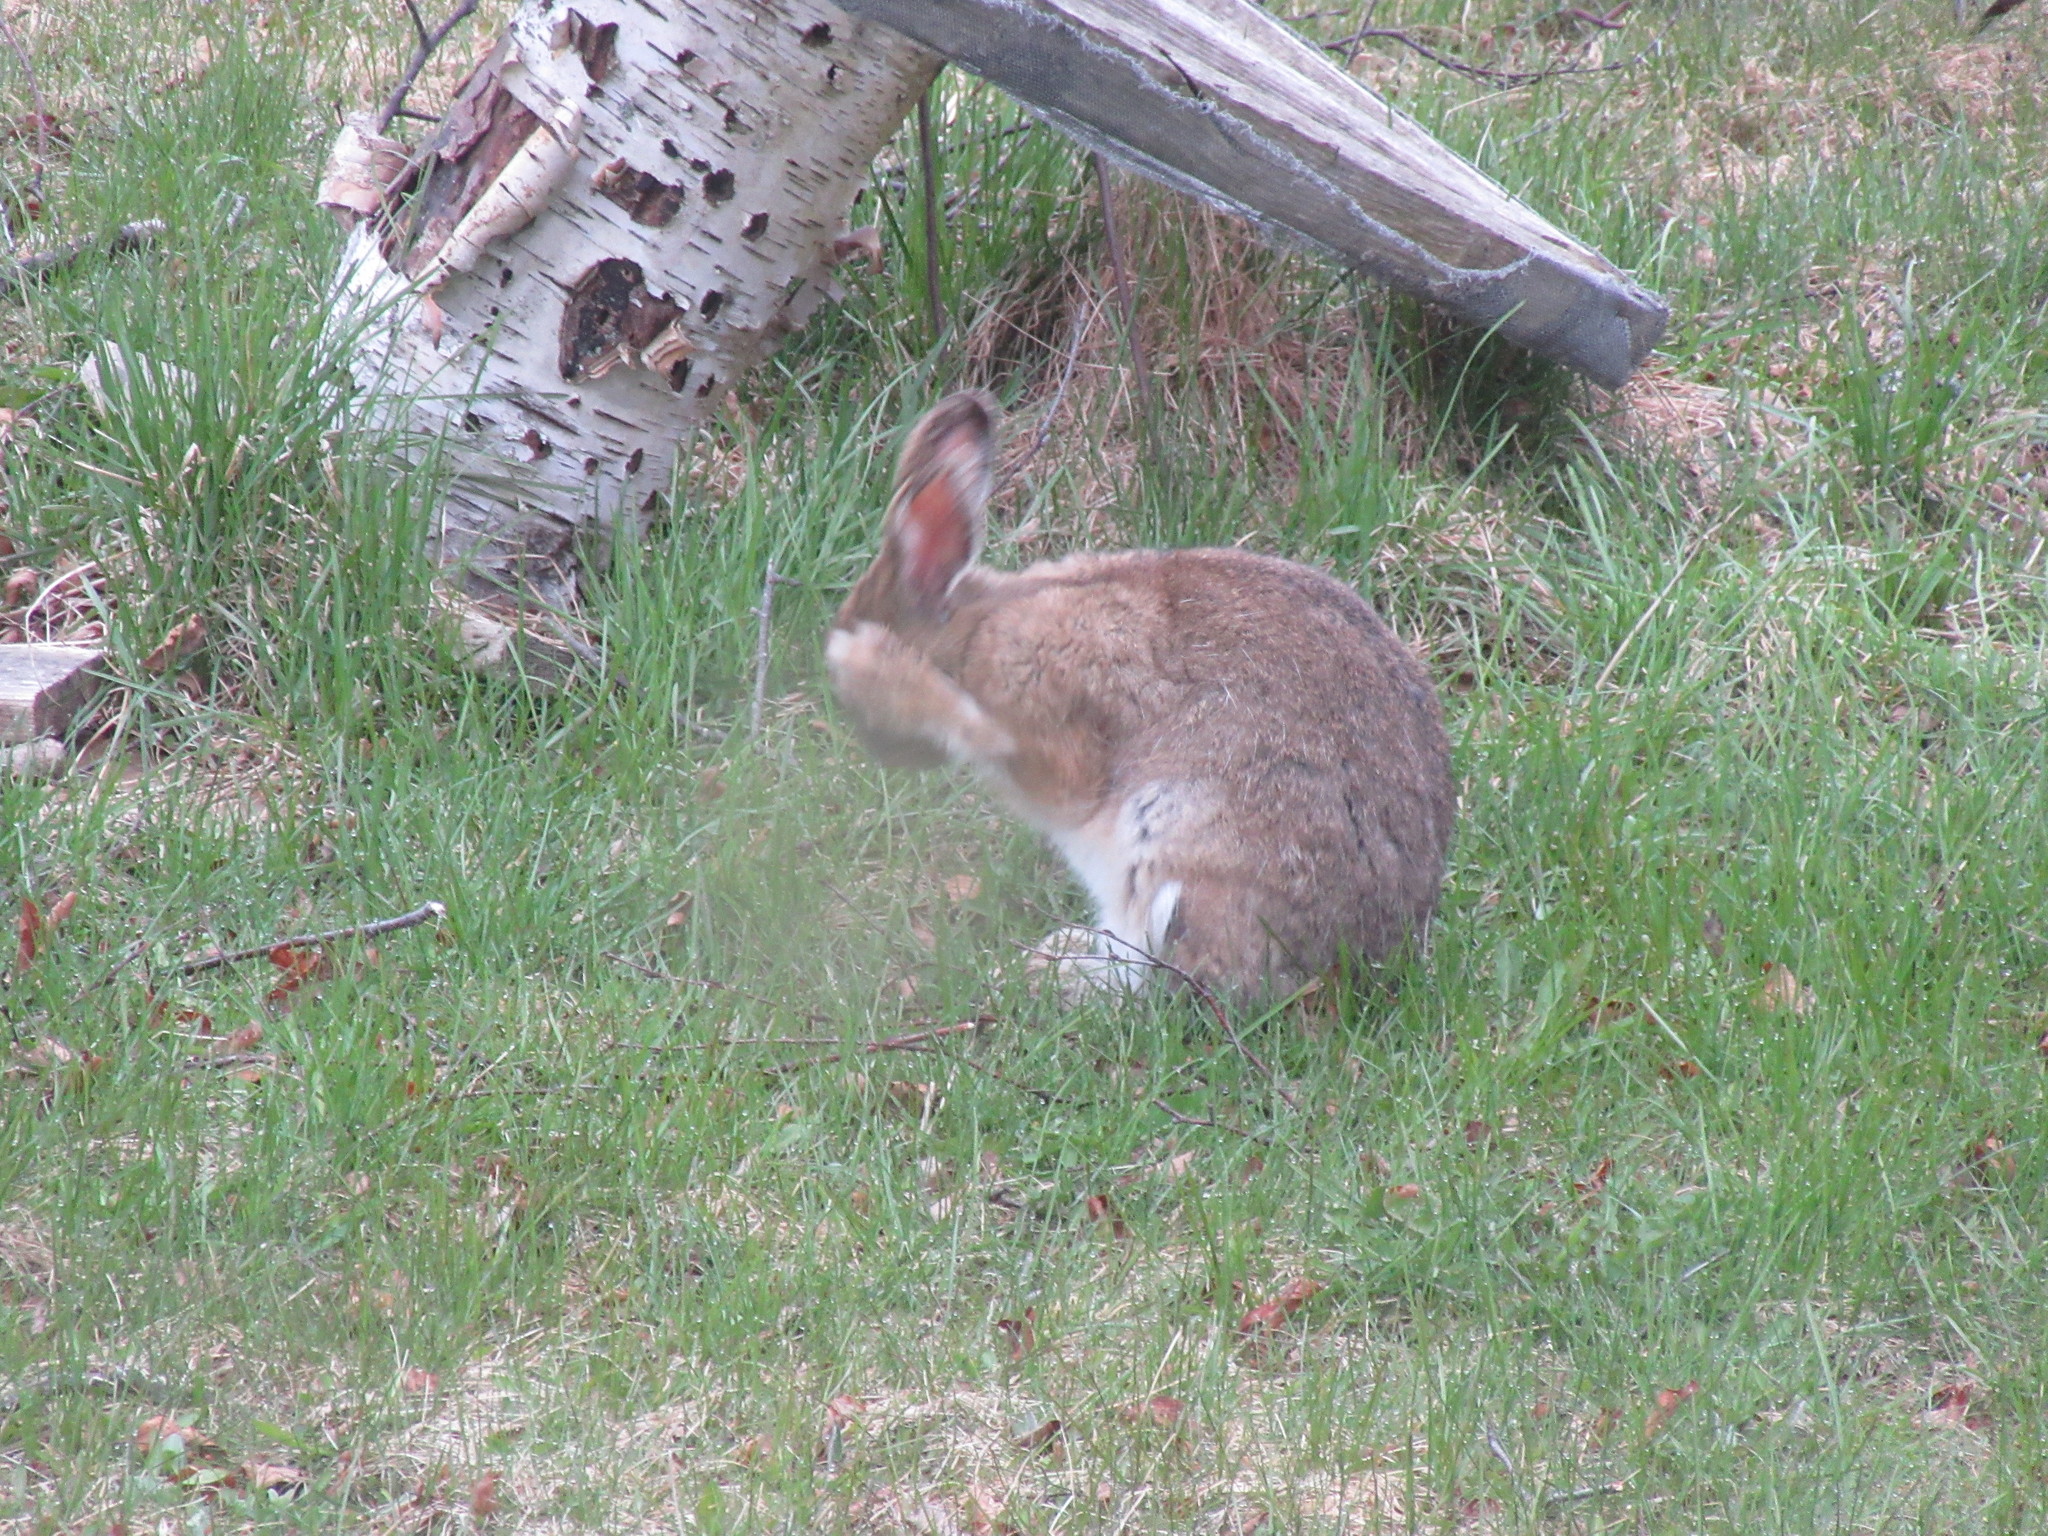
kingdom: Animalia
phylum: Chordata
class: Mammalia
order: Lagomorpha
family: Leporidae
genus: Lepus
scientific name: Lepus americanus
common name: Snowshoe hare
